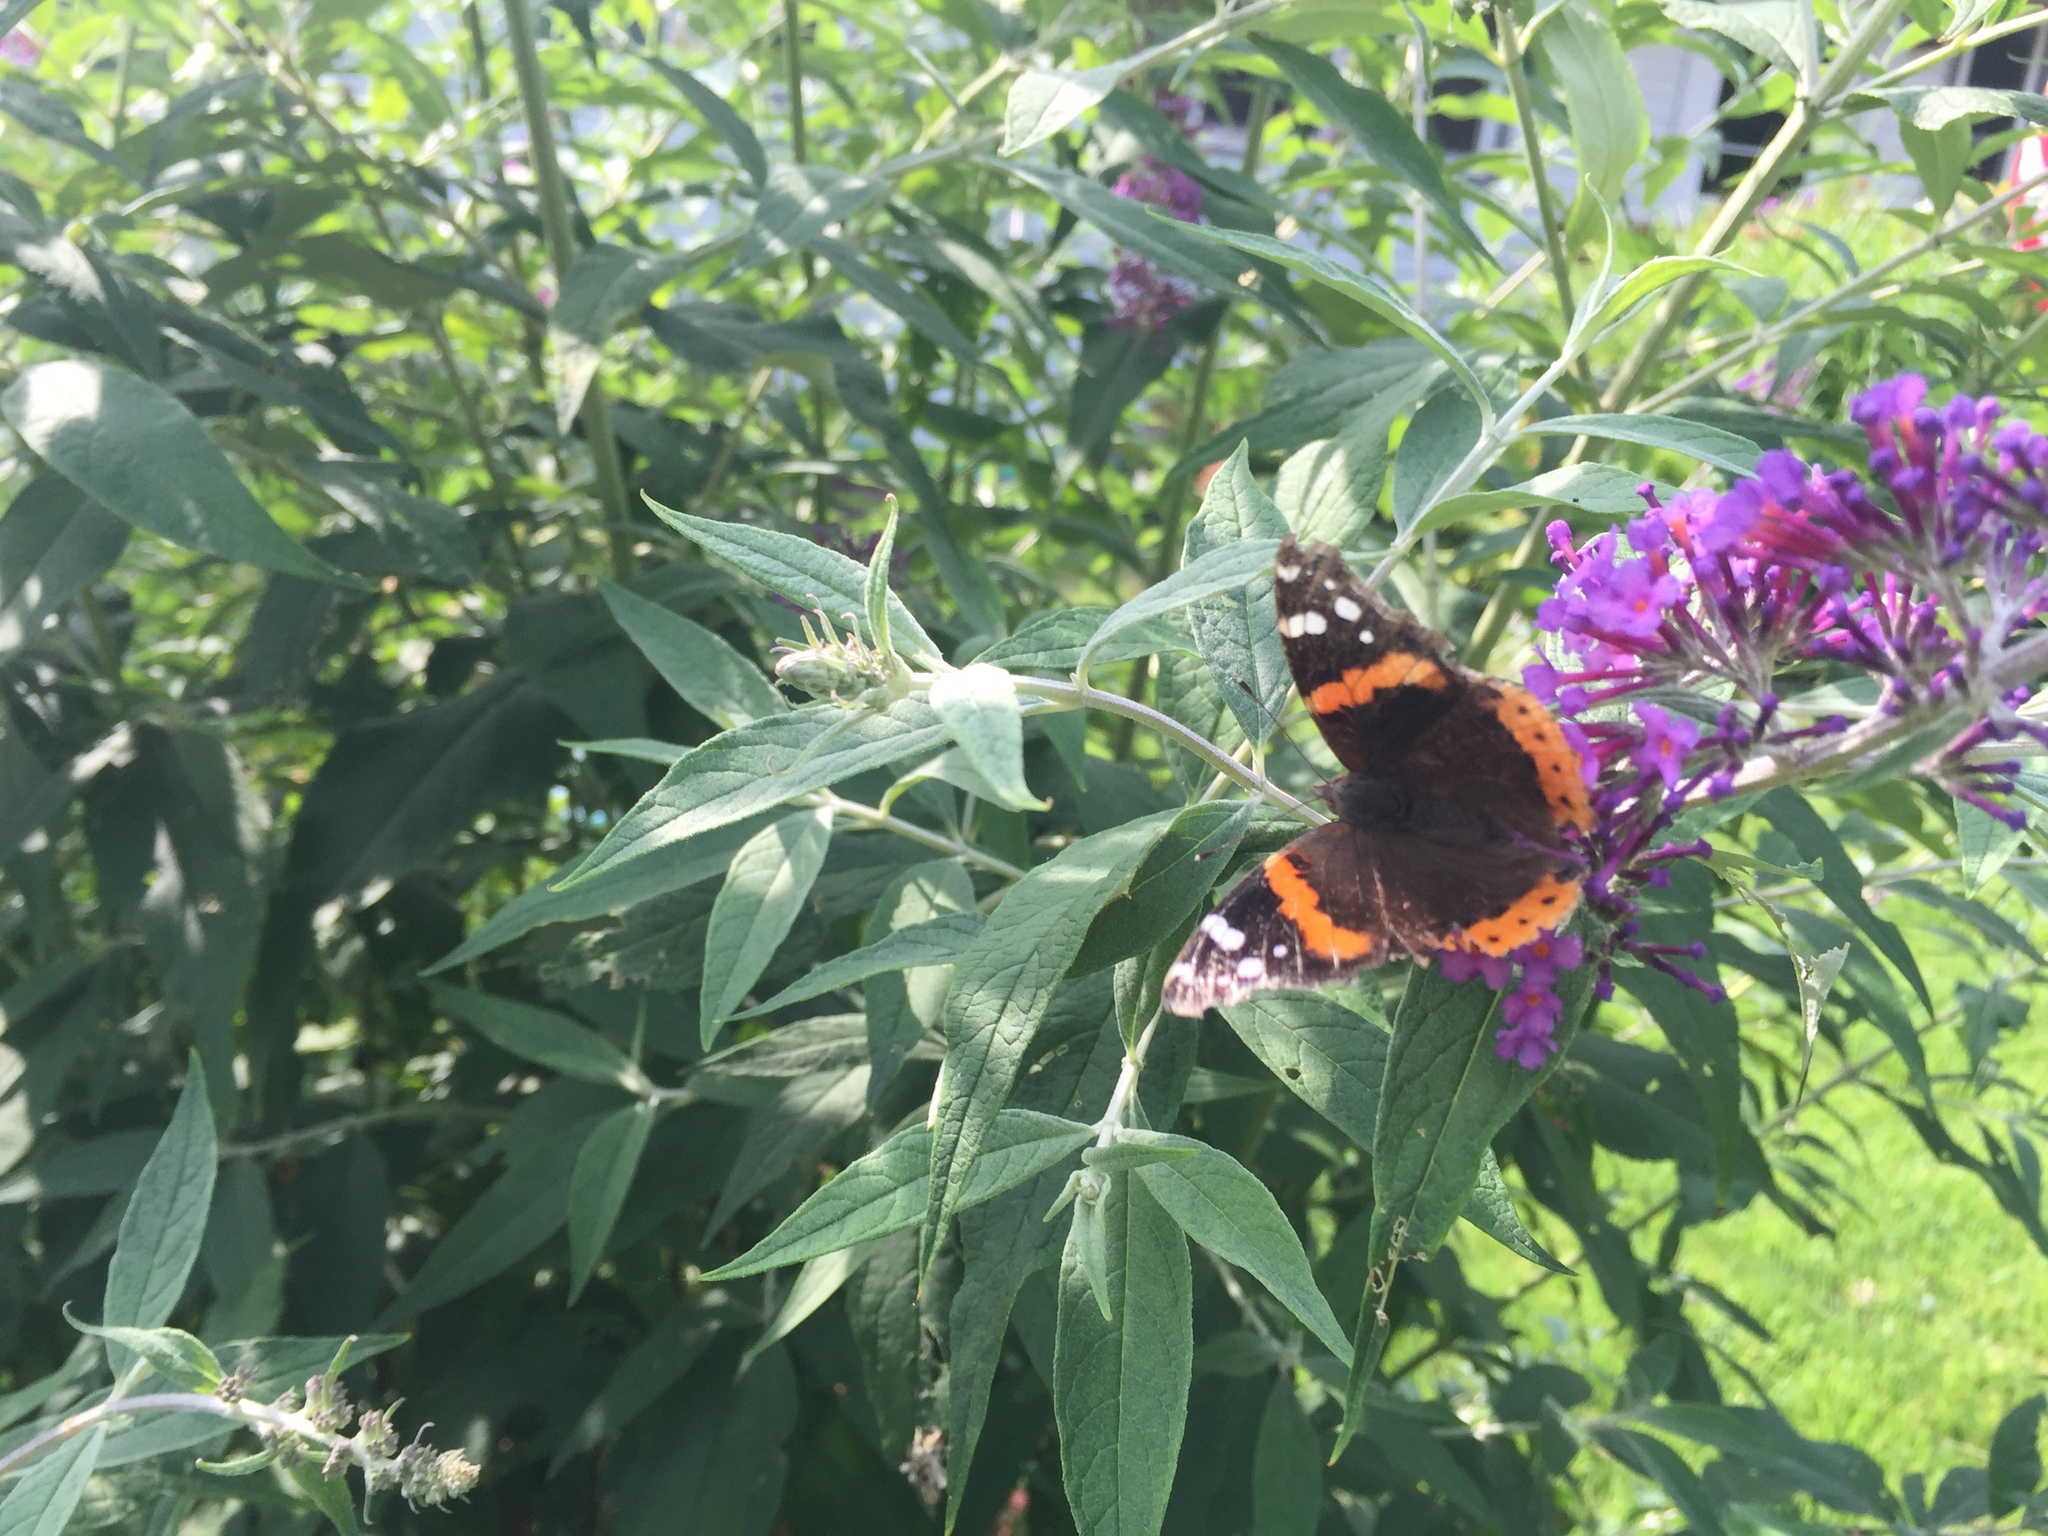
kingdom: Animalia
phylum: Arthropoda
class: Insecta
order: Lepidoptera
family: Nymphalidae
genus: Vanessa
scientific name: Vanessa atalanta
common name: Red admiral
